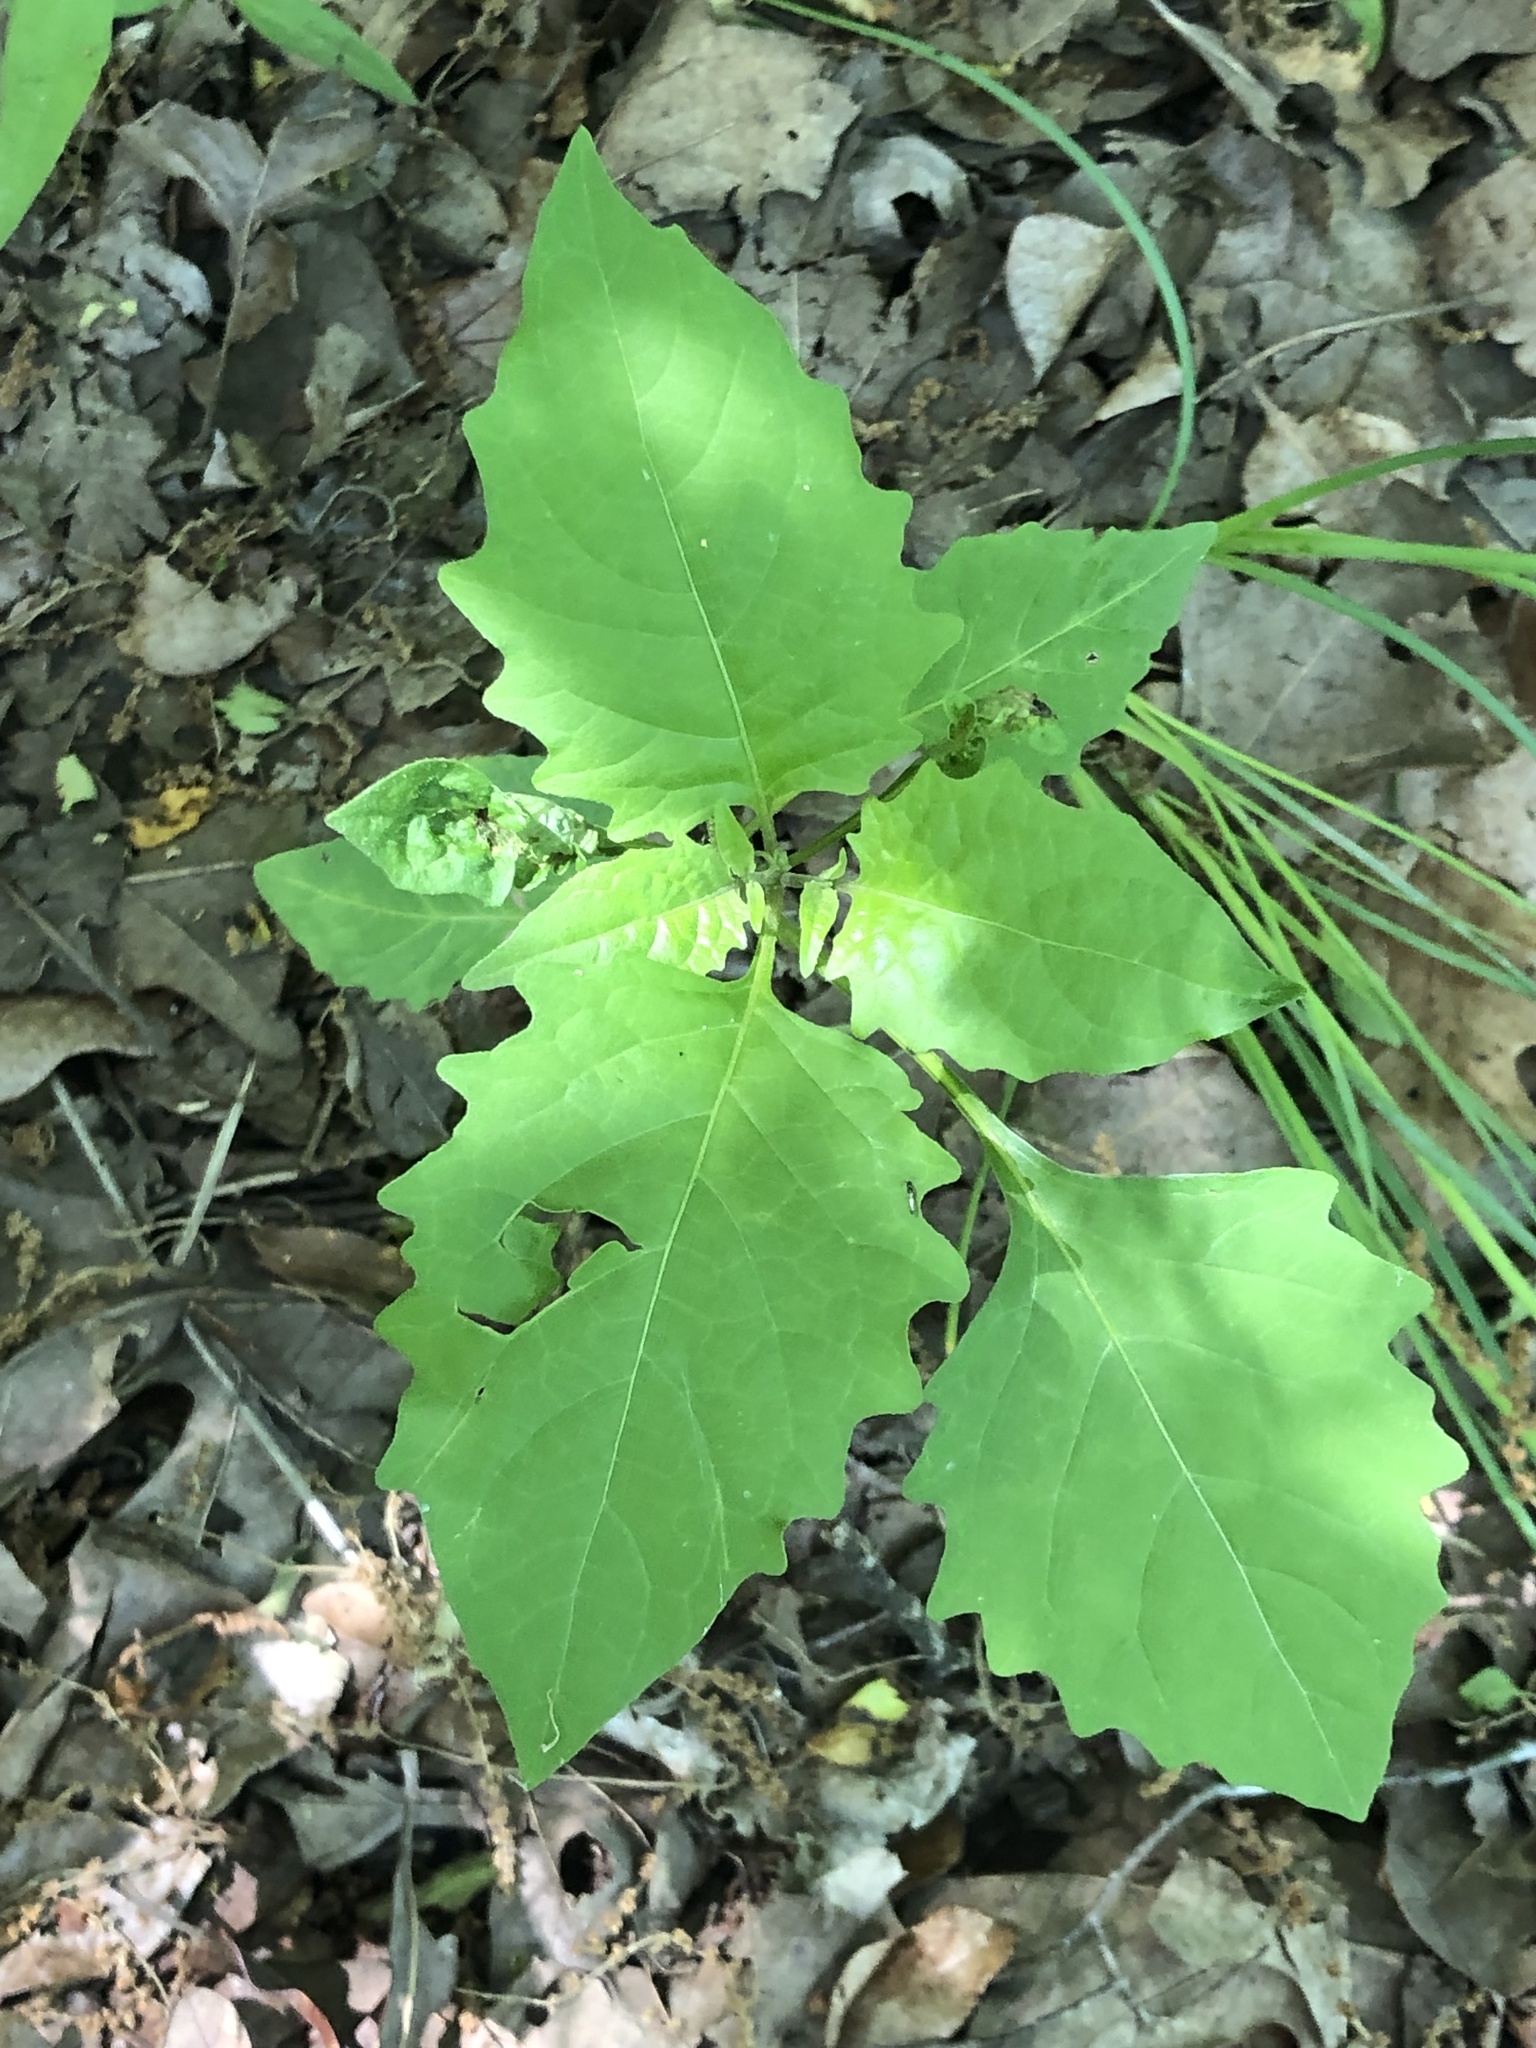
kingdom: Plantae
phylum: Tracheophyta
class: Magnoliopsida
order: Solanales
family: Solanaceae
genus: Solanum
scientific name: Solanum emulans
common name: Eastern black nightshade
